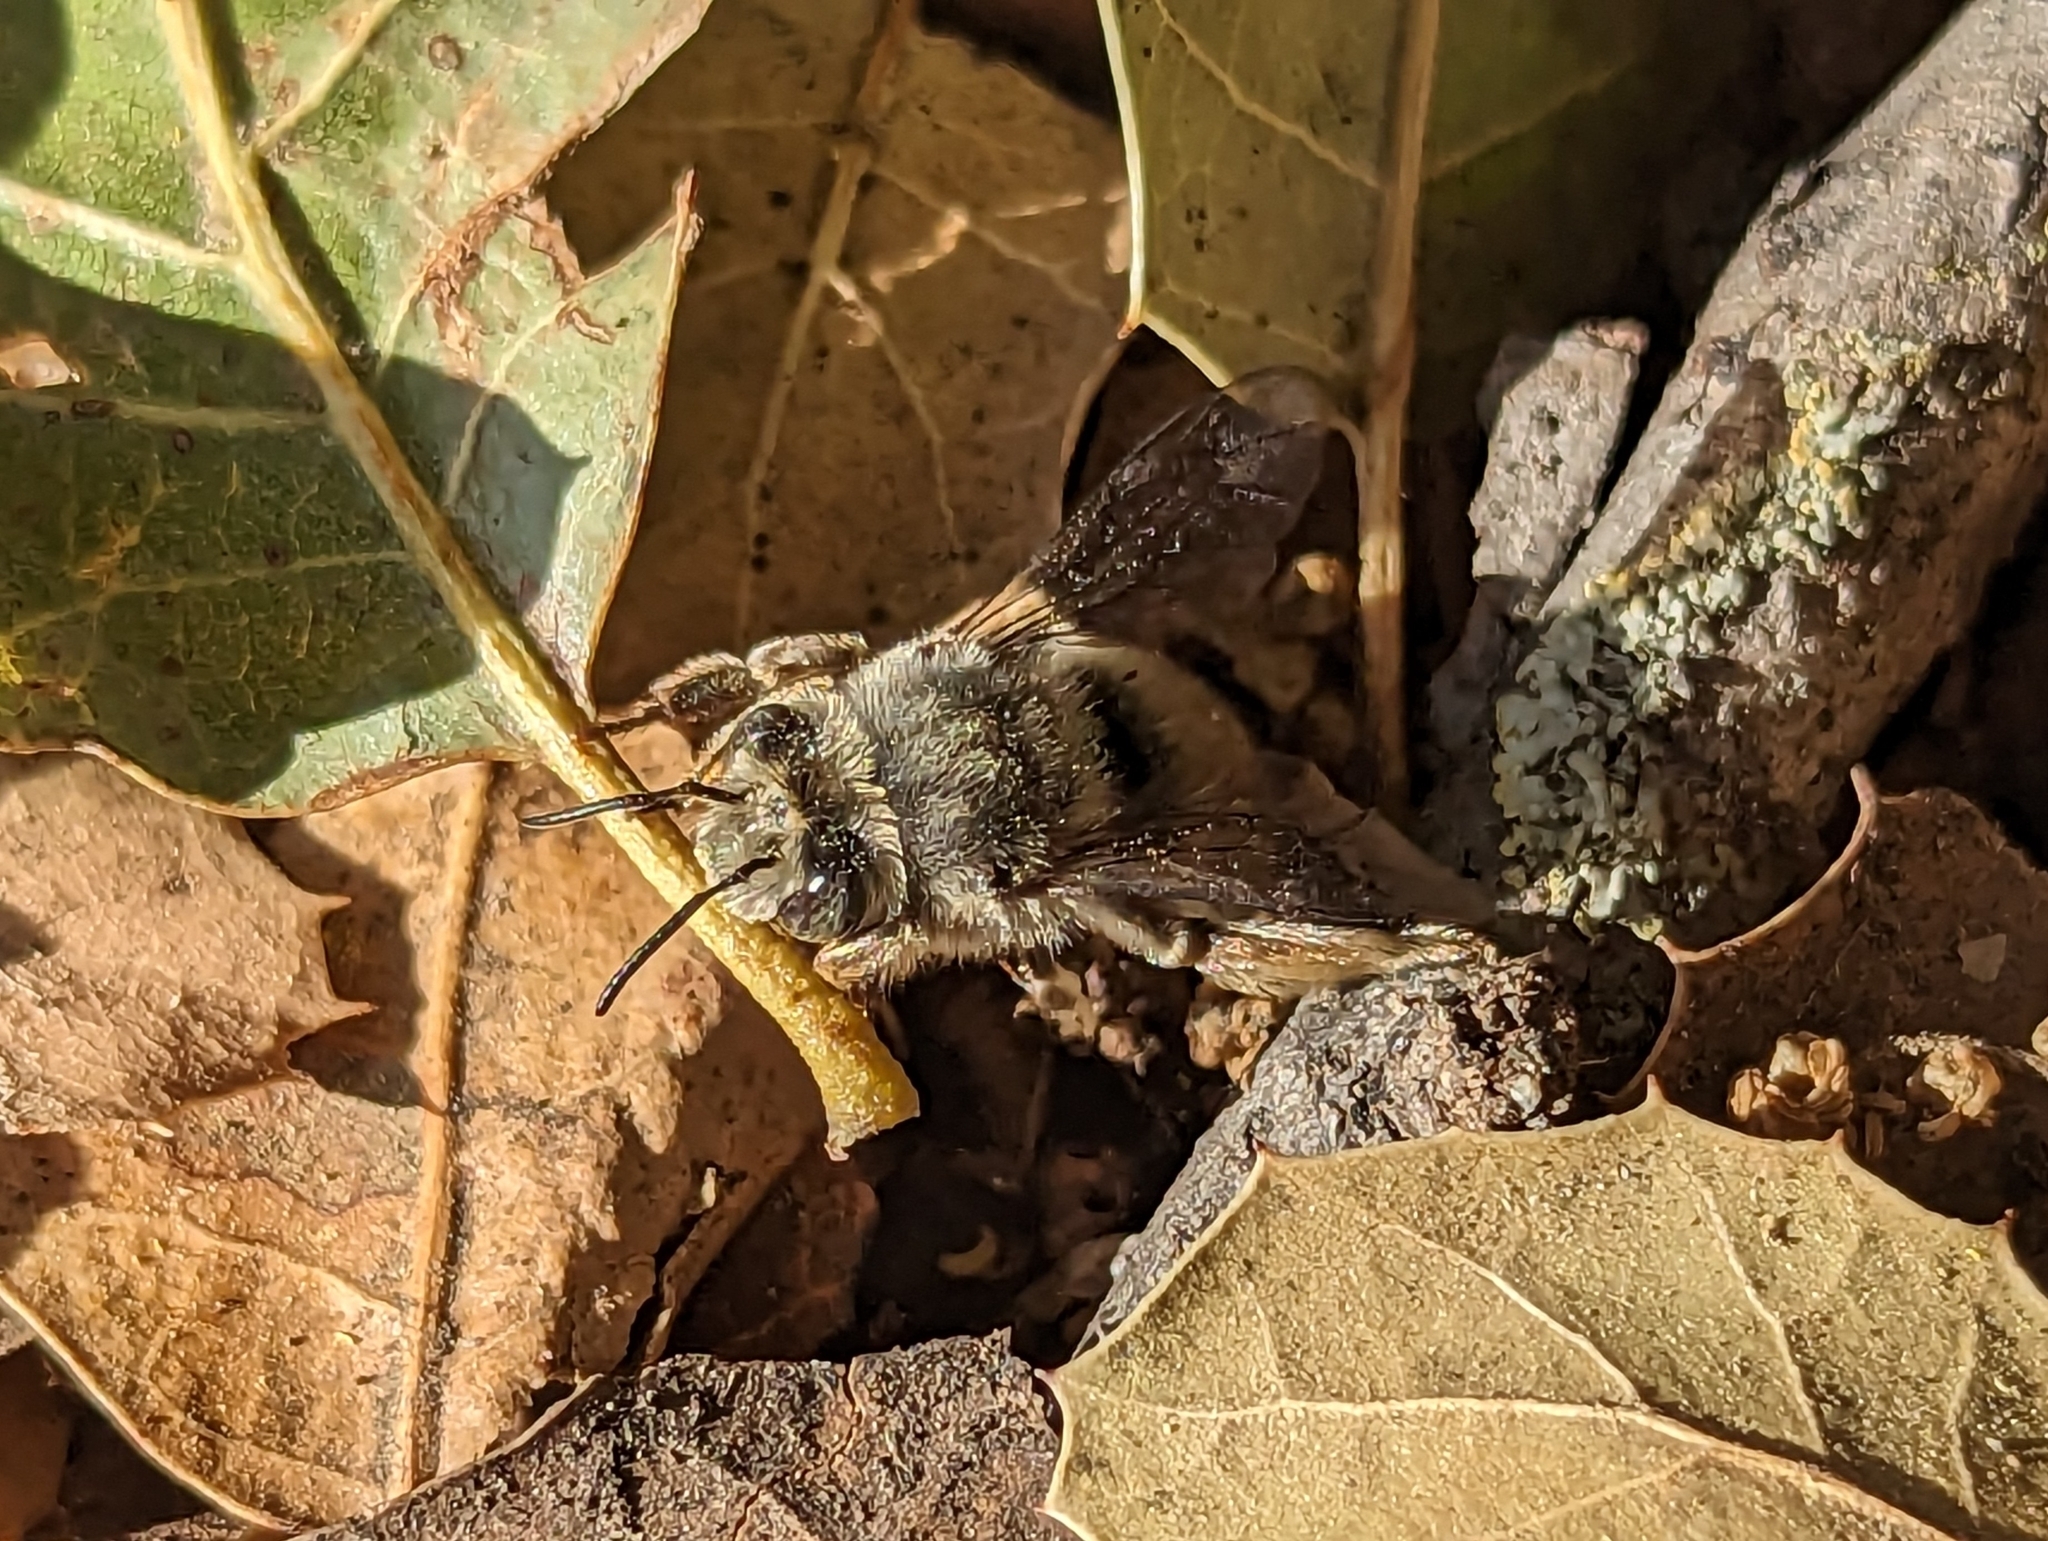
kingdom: Animalia
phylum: Arthropoda
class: Insecta
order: Hymenoptera
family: Apidae
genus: Habropoda
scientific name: Habropoda depressa
